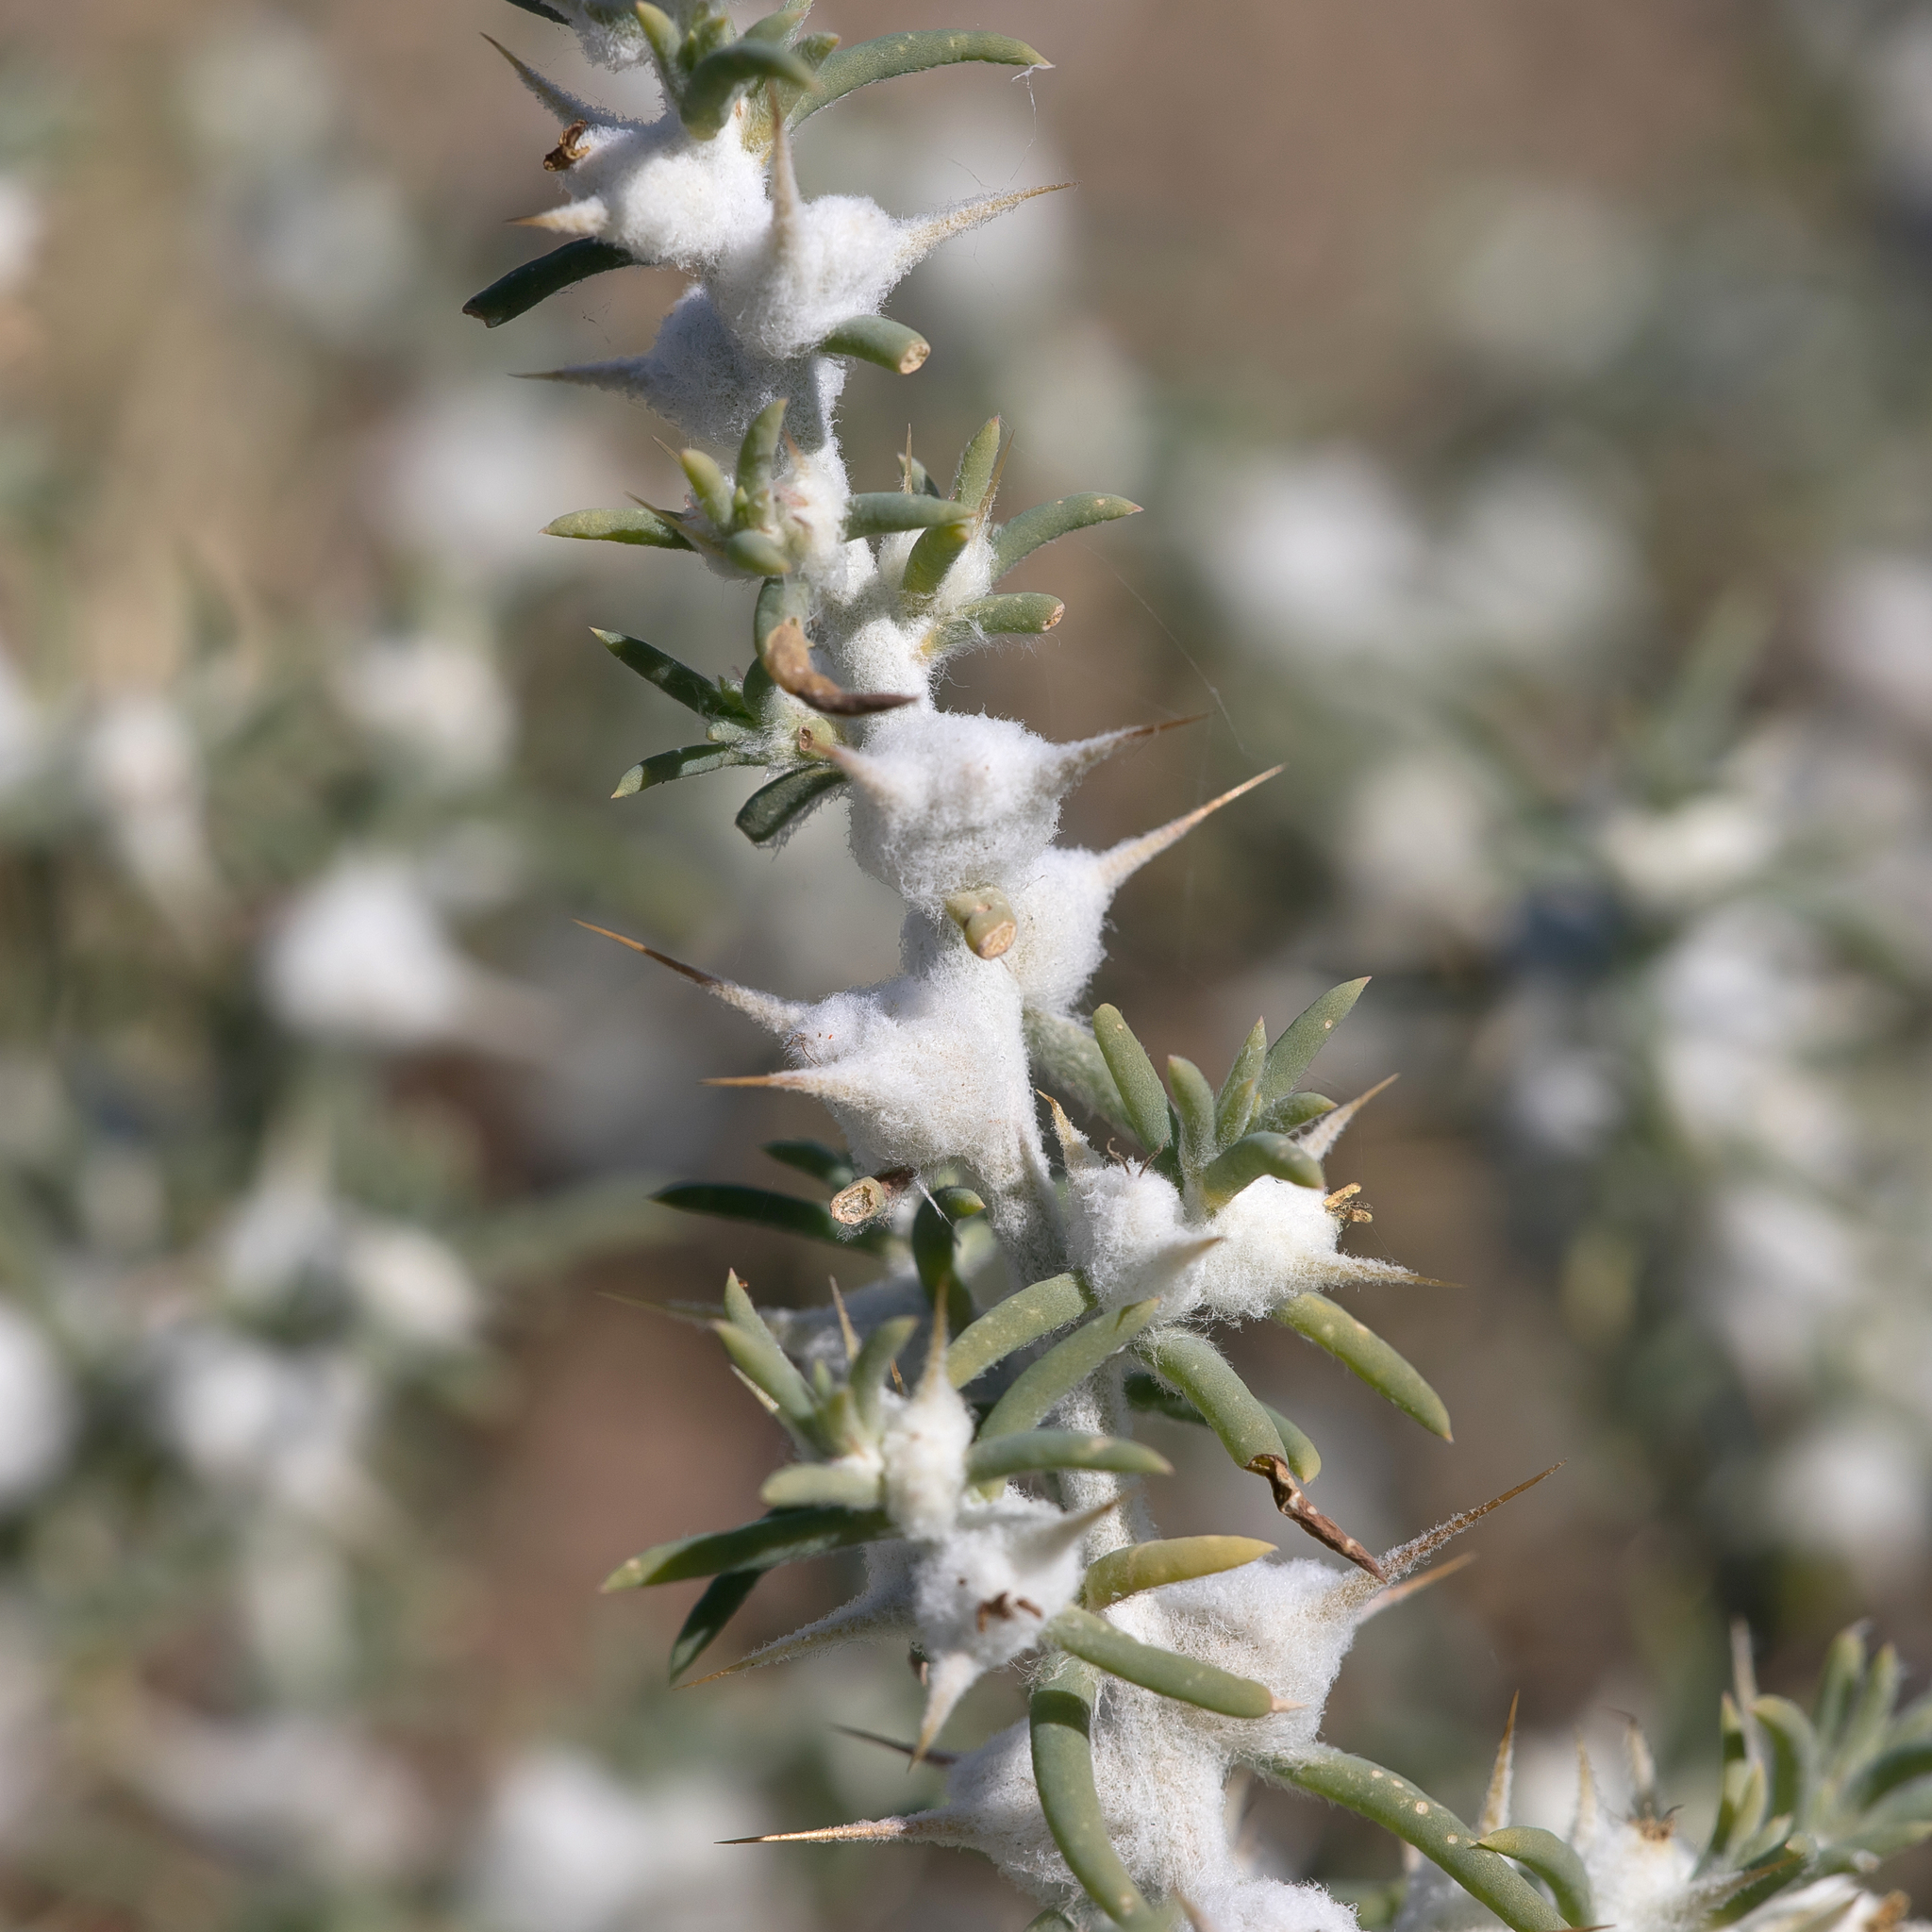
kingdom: Plantae
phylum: Tracheophyta
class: Magnoliopsida
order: Caryophyllales
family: Amaranthaceae
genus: Sclerolaena
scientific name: Sclerolaena bicornis
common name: Goatheadbur
